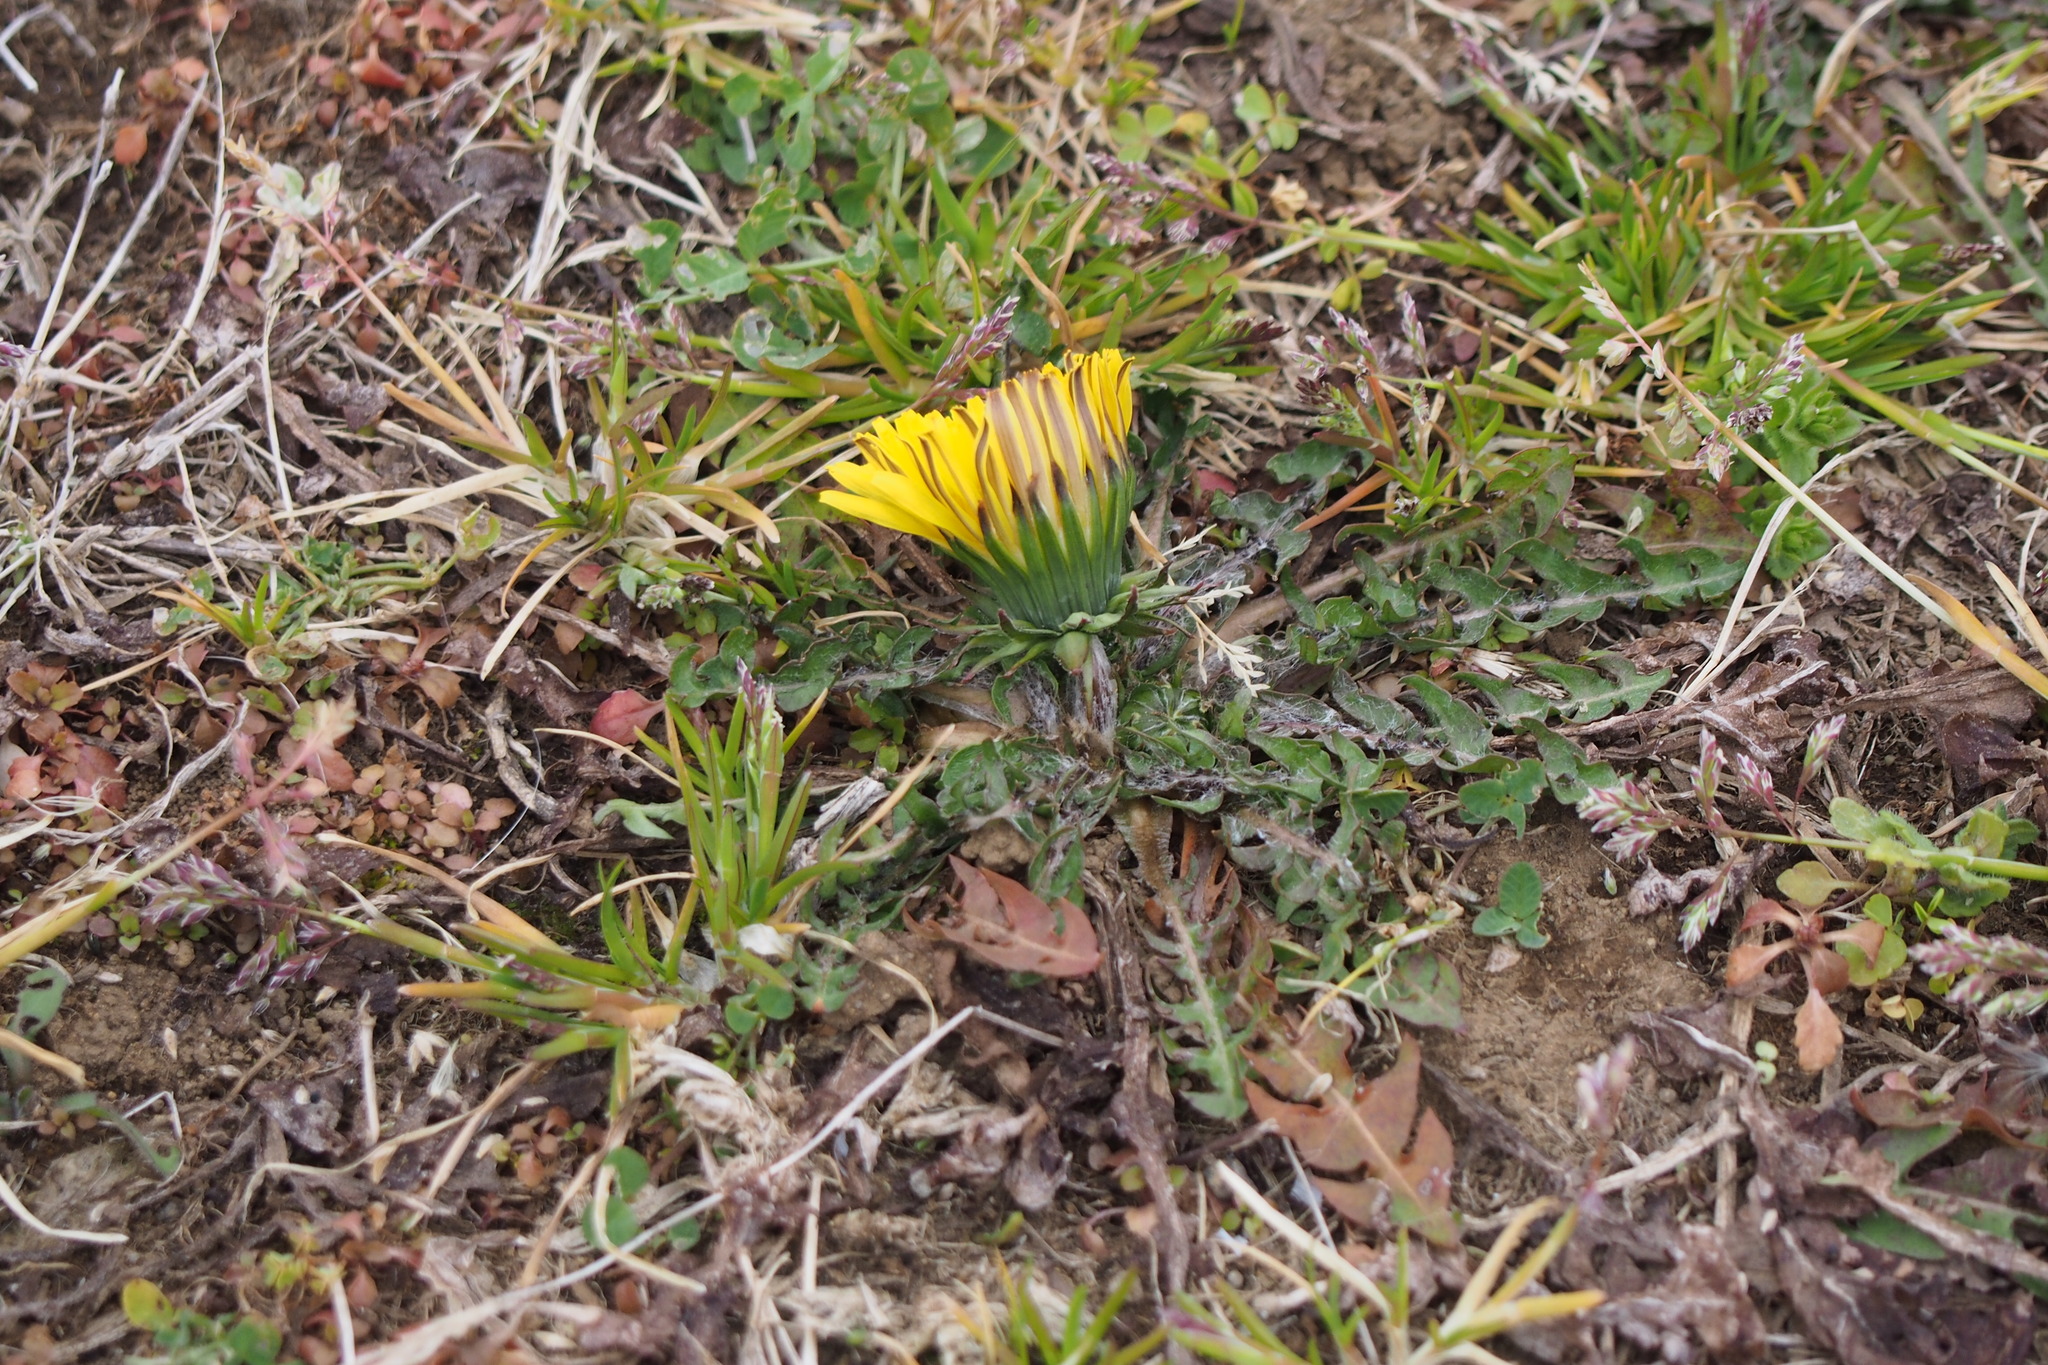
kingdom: Plantae
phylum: Tracheophyta
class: Magnoliopsida
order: Asterales
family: Asteraceae
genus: Taraxacum
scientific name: Taraxacum officinale
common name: Common dandelion
